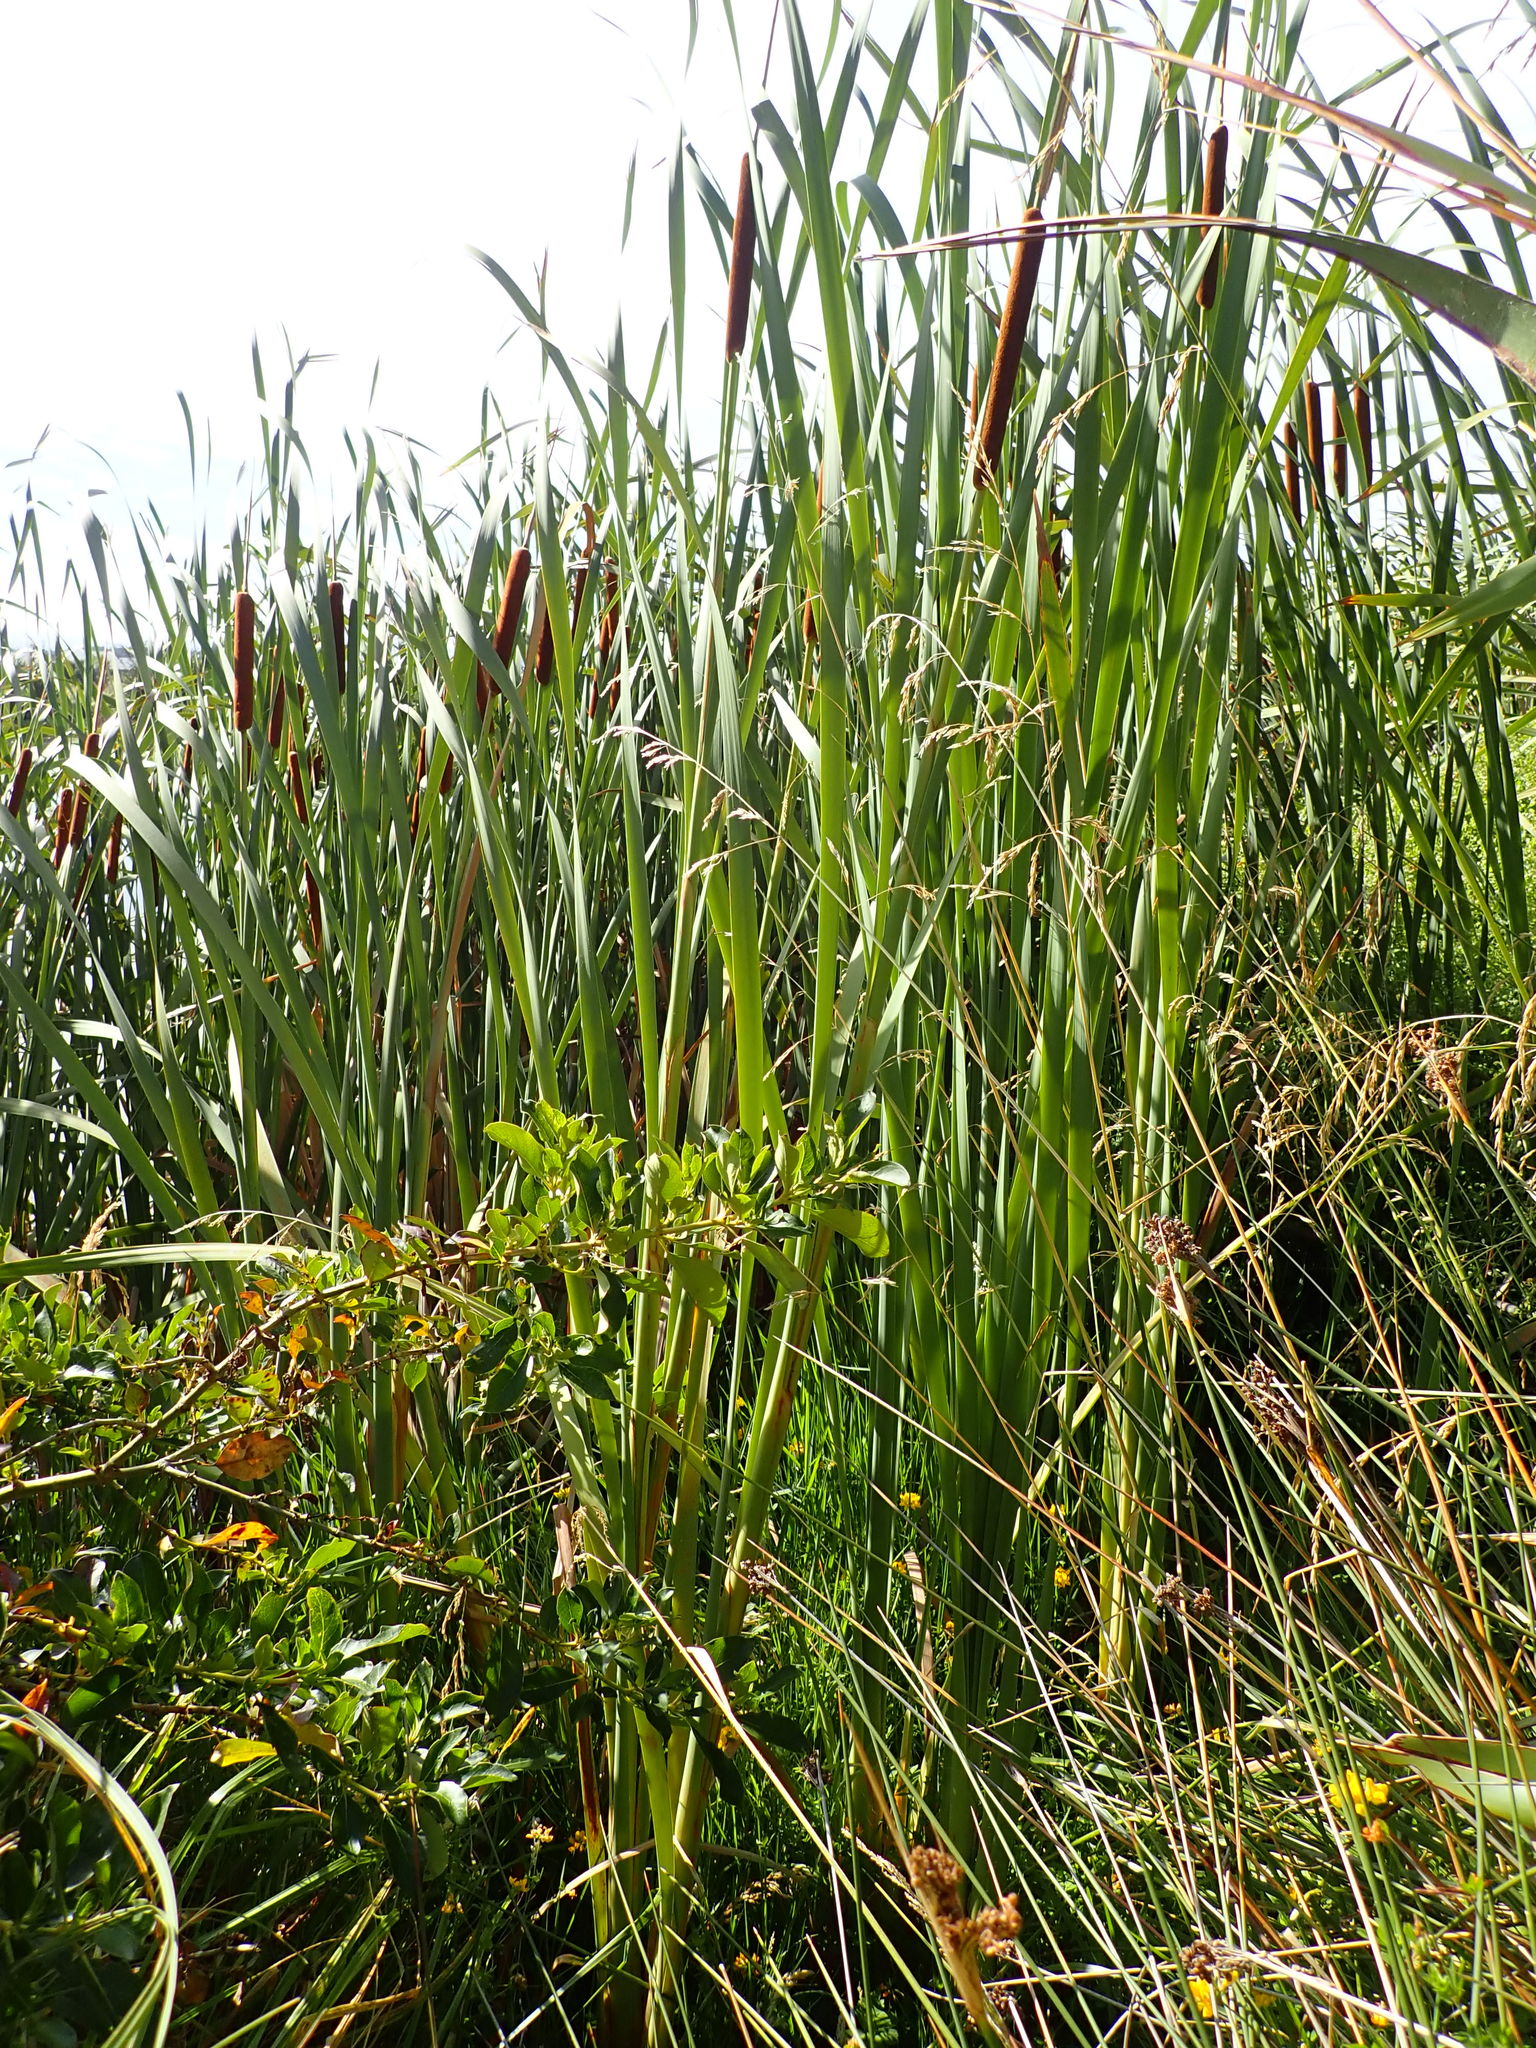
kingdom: Plantae
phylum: Tracheophyta
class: Liliopsida
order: Poales
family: Typhaceae
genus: Typha
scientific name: Typha orientalis
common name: Bullrush
